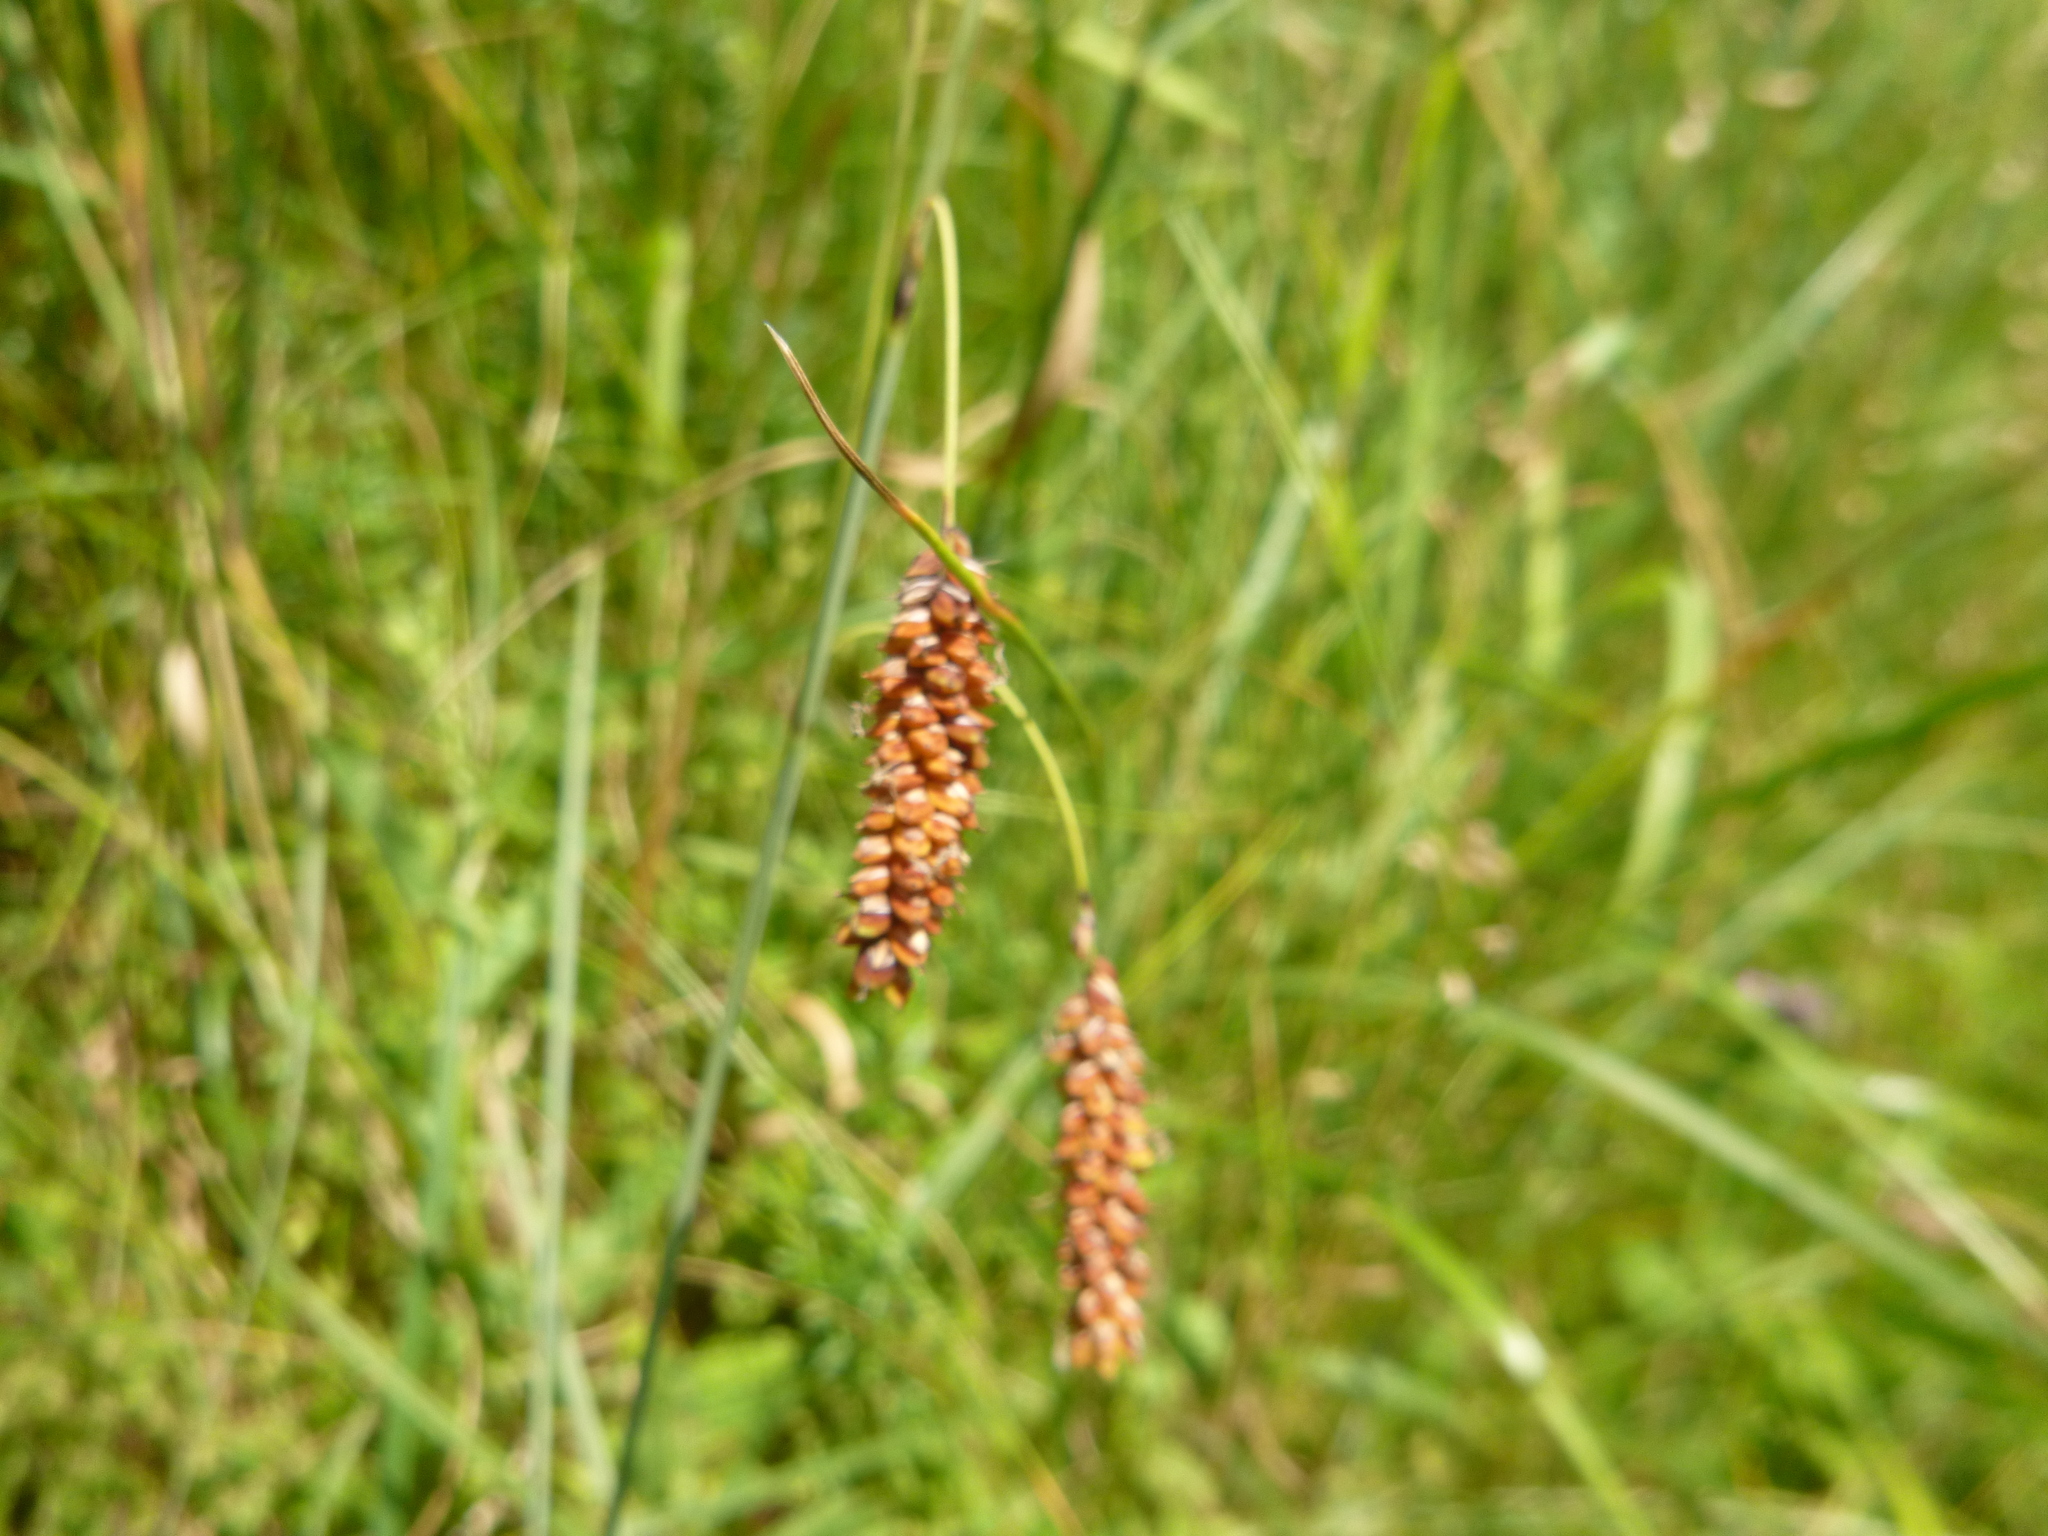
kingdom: Plantae
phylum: Tracheophyta
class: Liliopsida
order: Poales
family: Cyperaceae
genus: Carex
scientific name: Carex flacca
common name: Glaucous sedge
